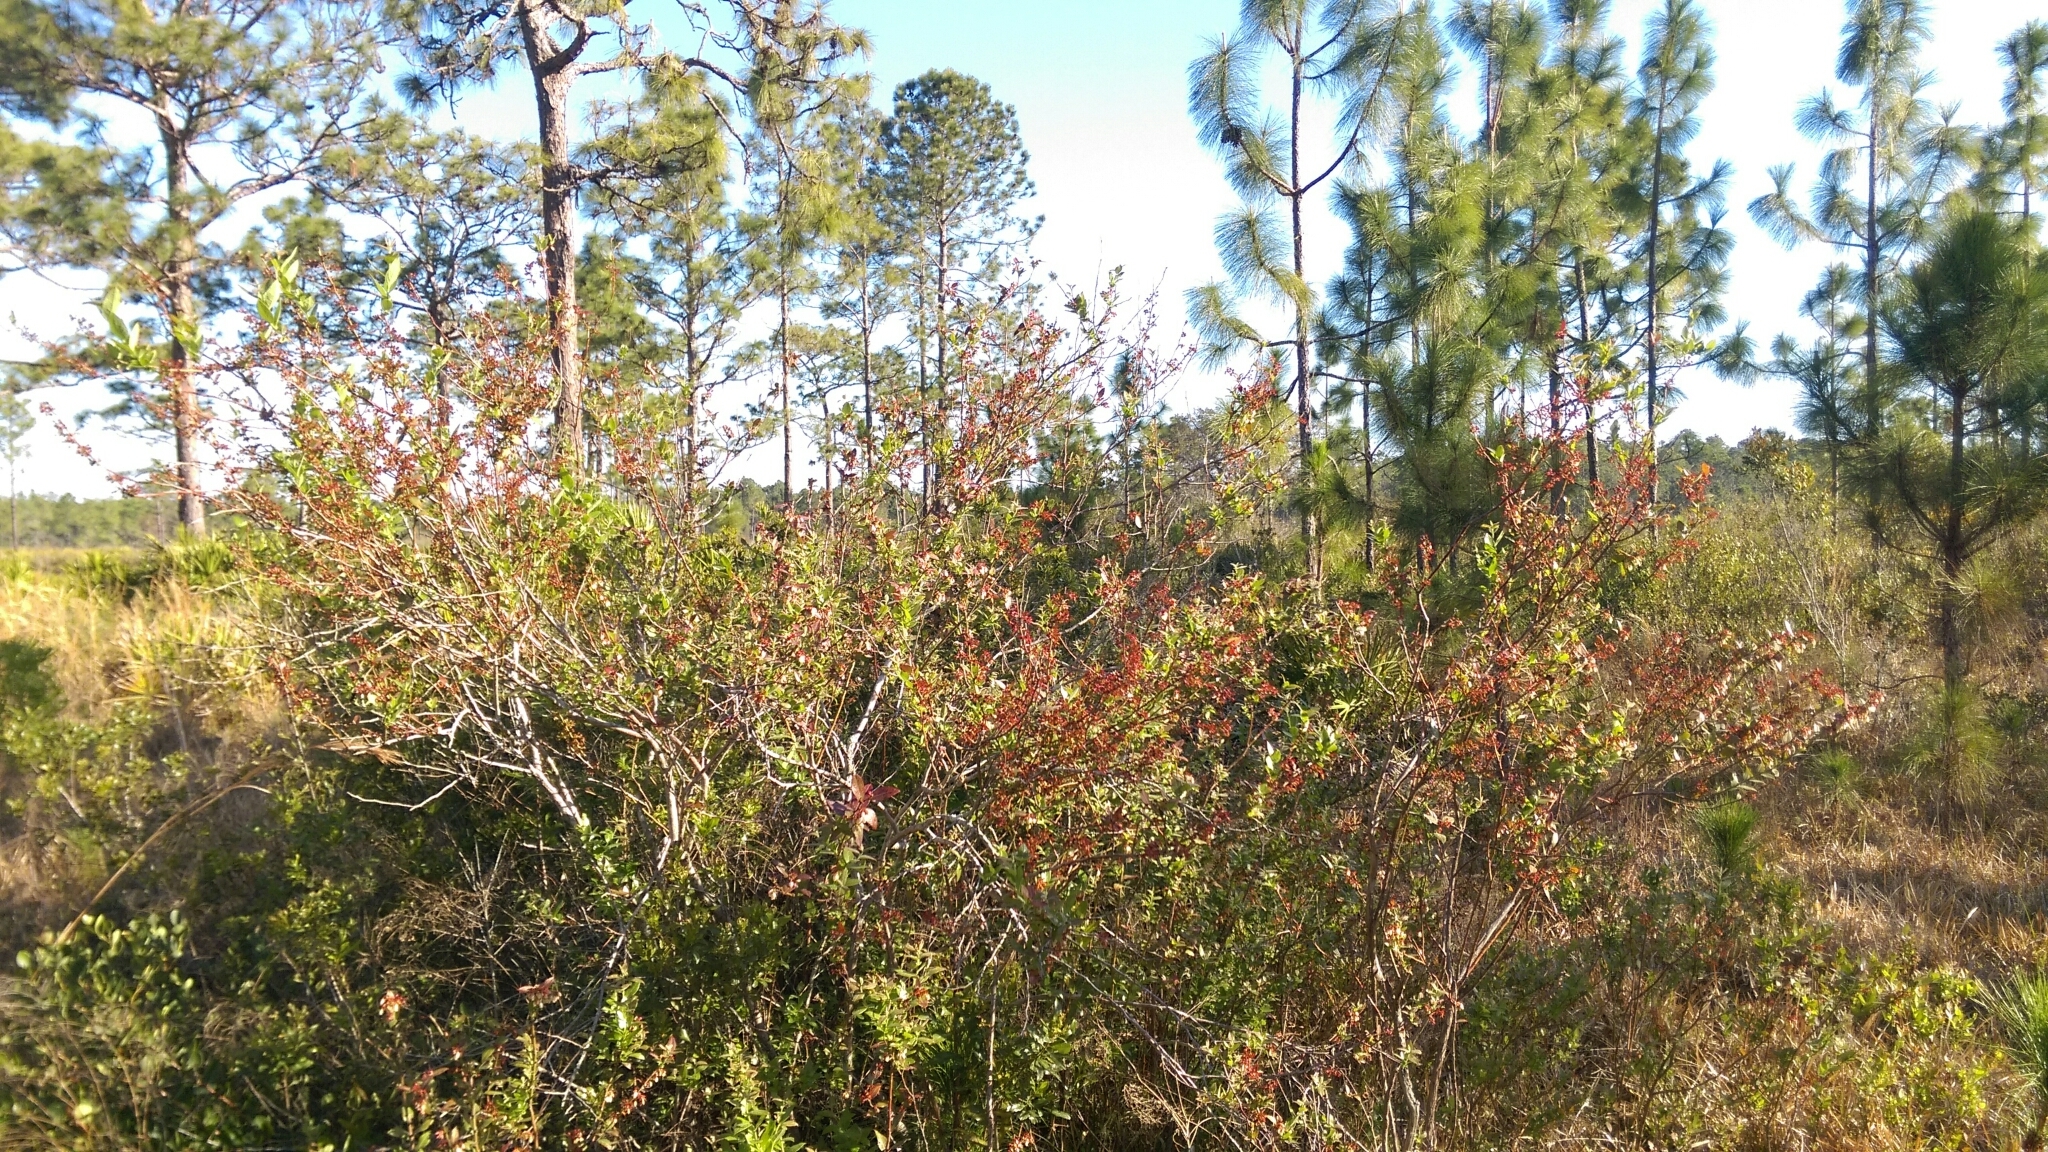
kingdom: Plantae
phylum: Tracheophyta
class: Magnoliopsida
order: Ericales
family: Ericaceae
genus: Vaccinium
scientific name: Vaccinium corymbosum
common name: Blueberry
